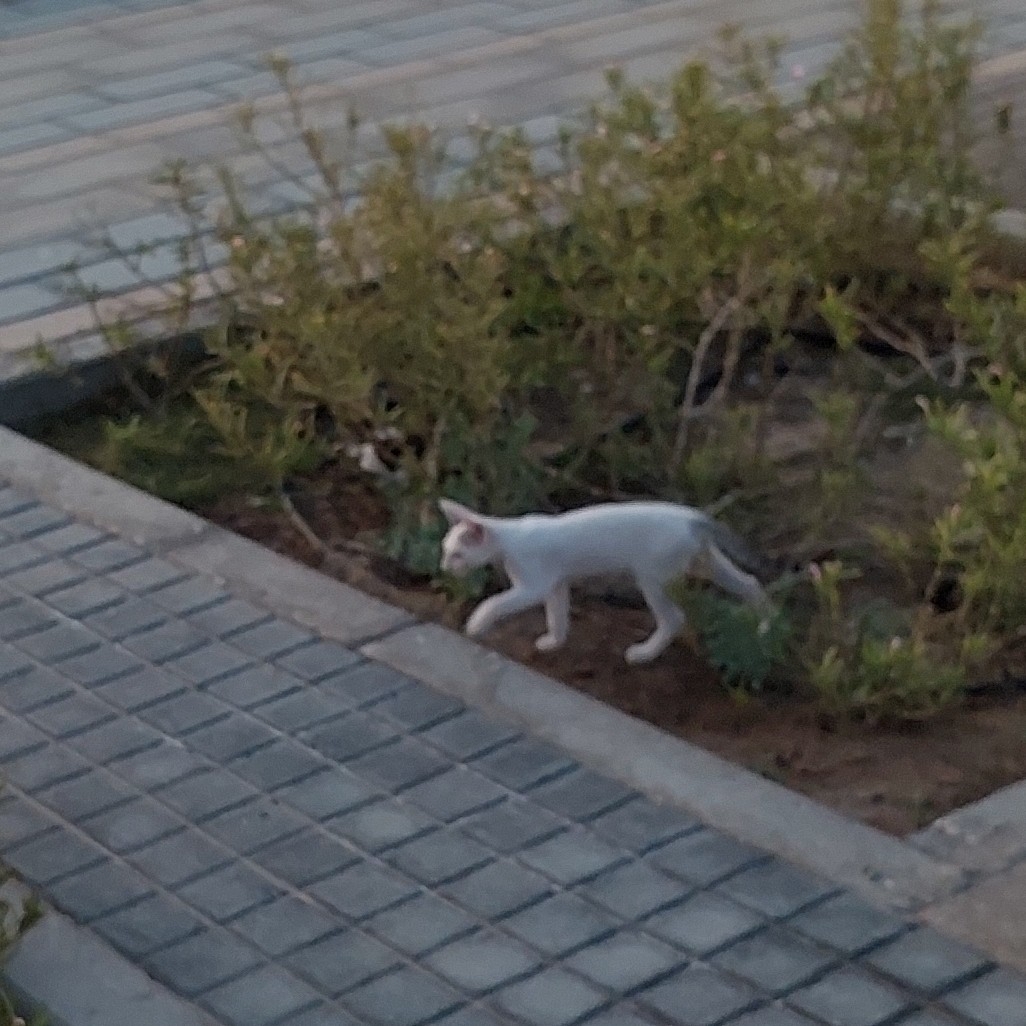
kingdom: Animalia
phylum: Chordata
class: Mammalia
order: Carnivora
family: Felidae
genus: Felis
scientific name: Felis catus
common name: Domestic cat
